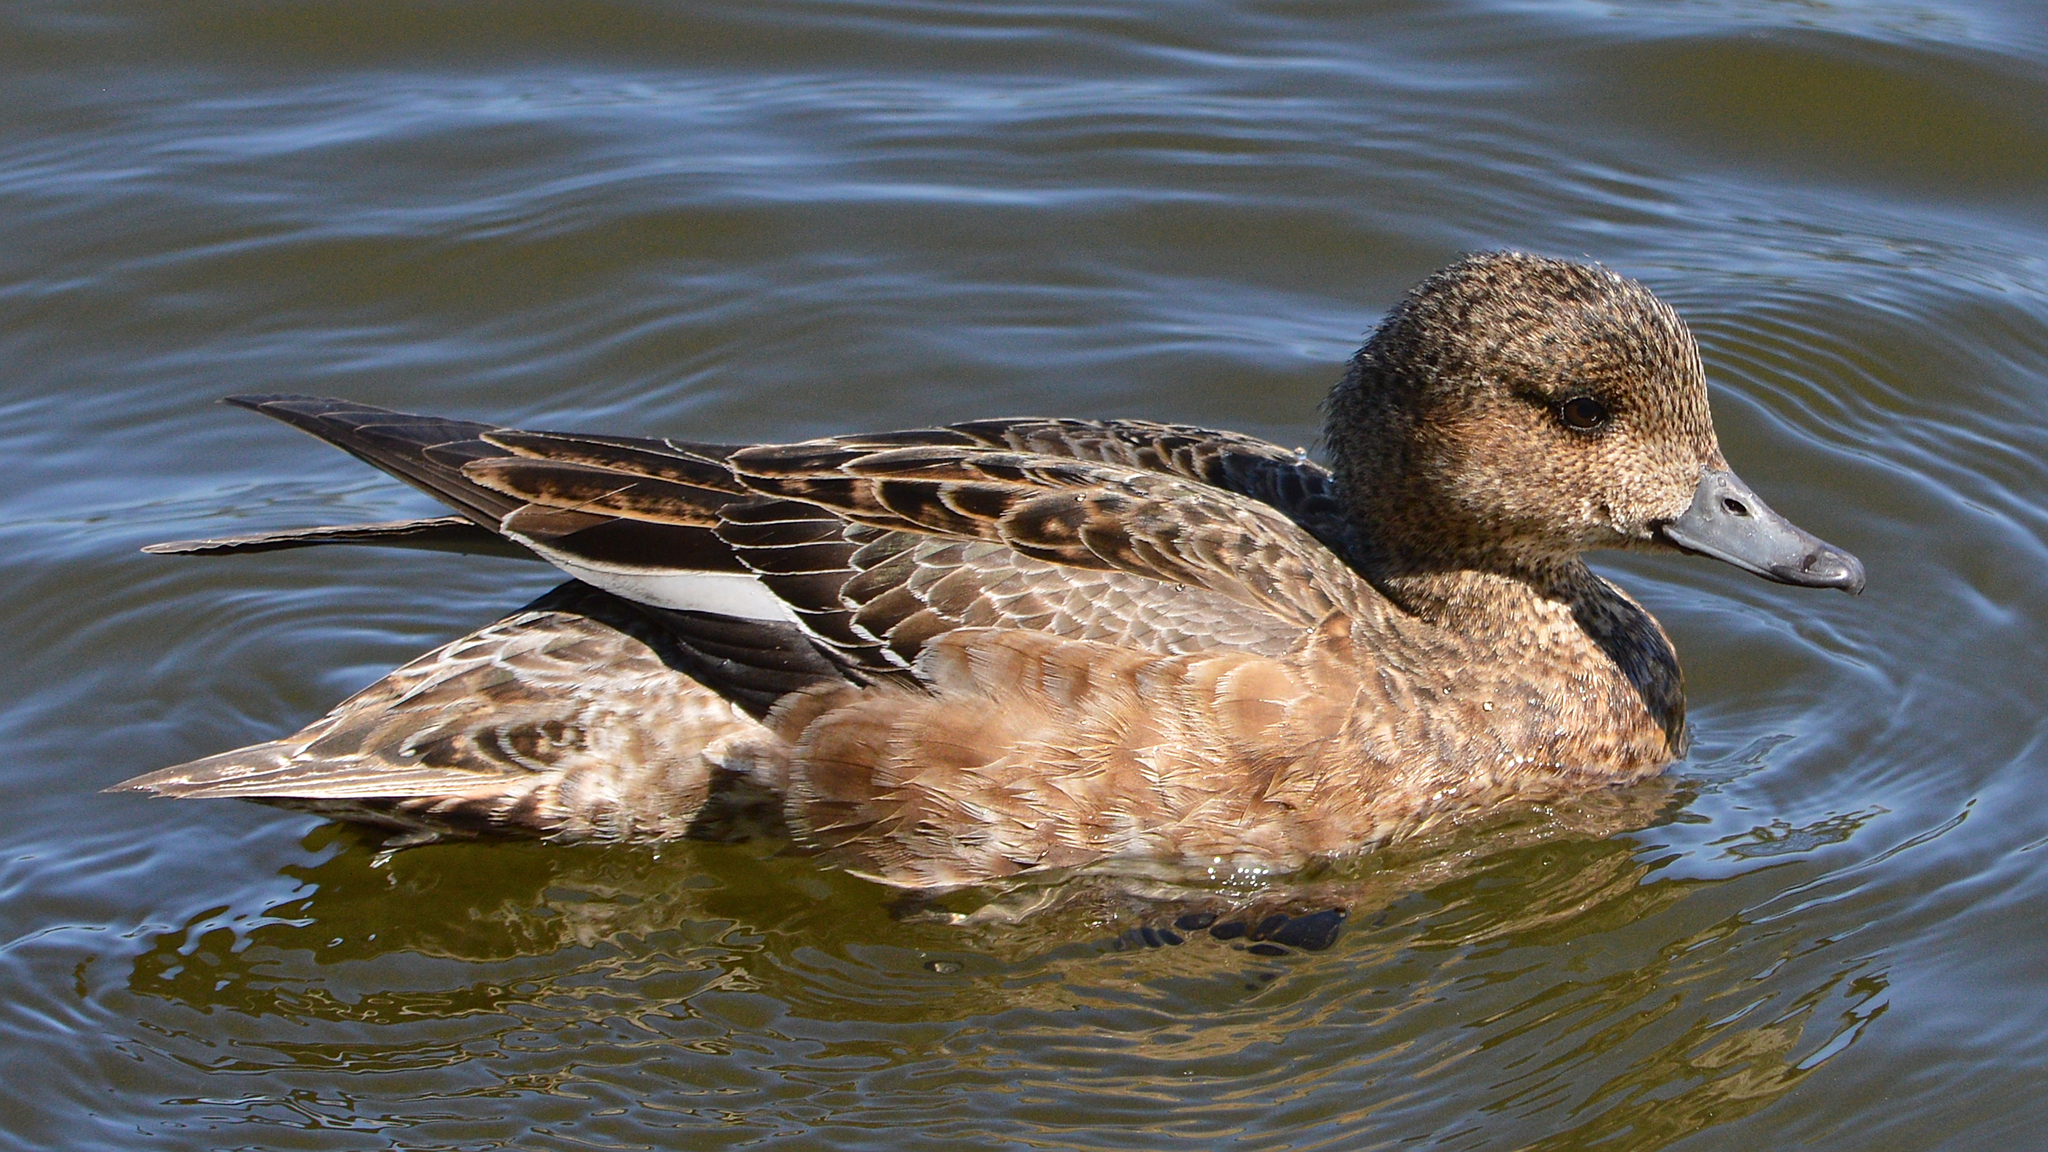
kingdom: Animalia
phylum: Chordata
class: Aves
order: Anseriformes
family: Anatidae
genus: Mareca
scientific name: Mareca penelope
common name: Eurasian wigeon
